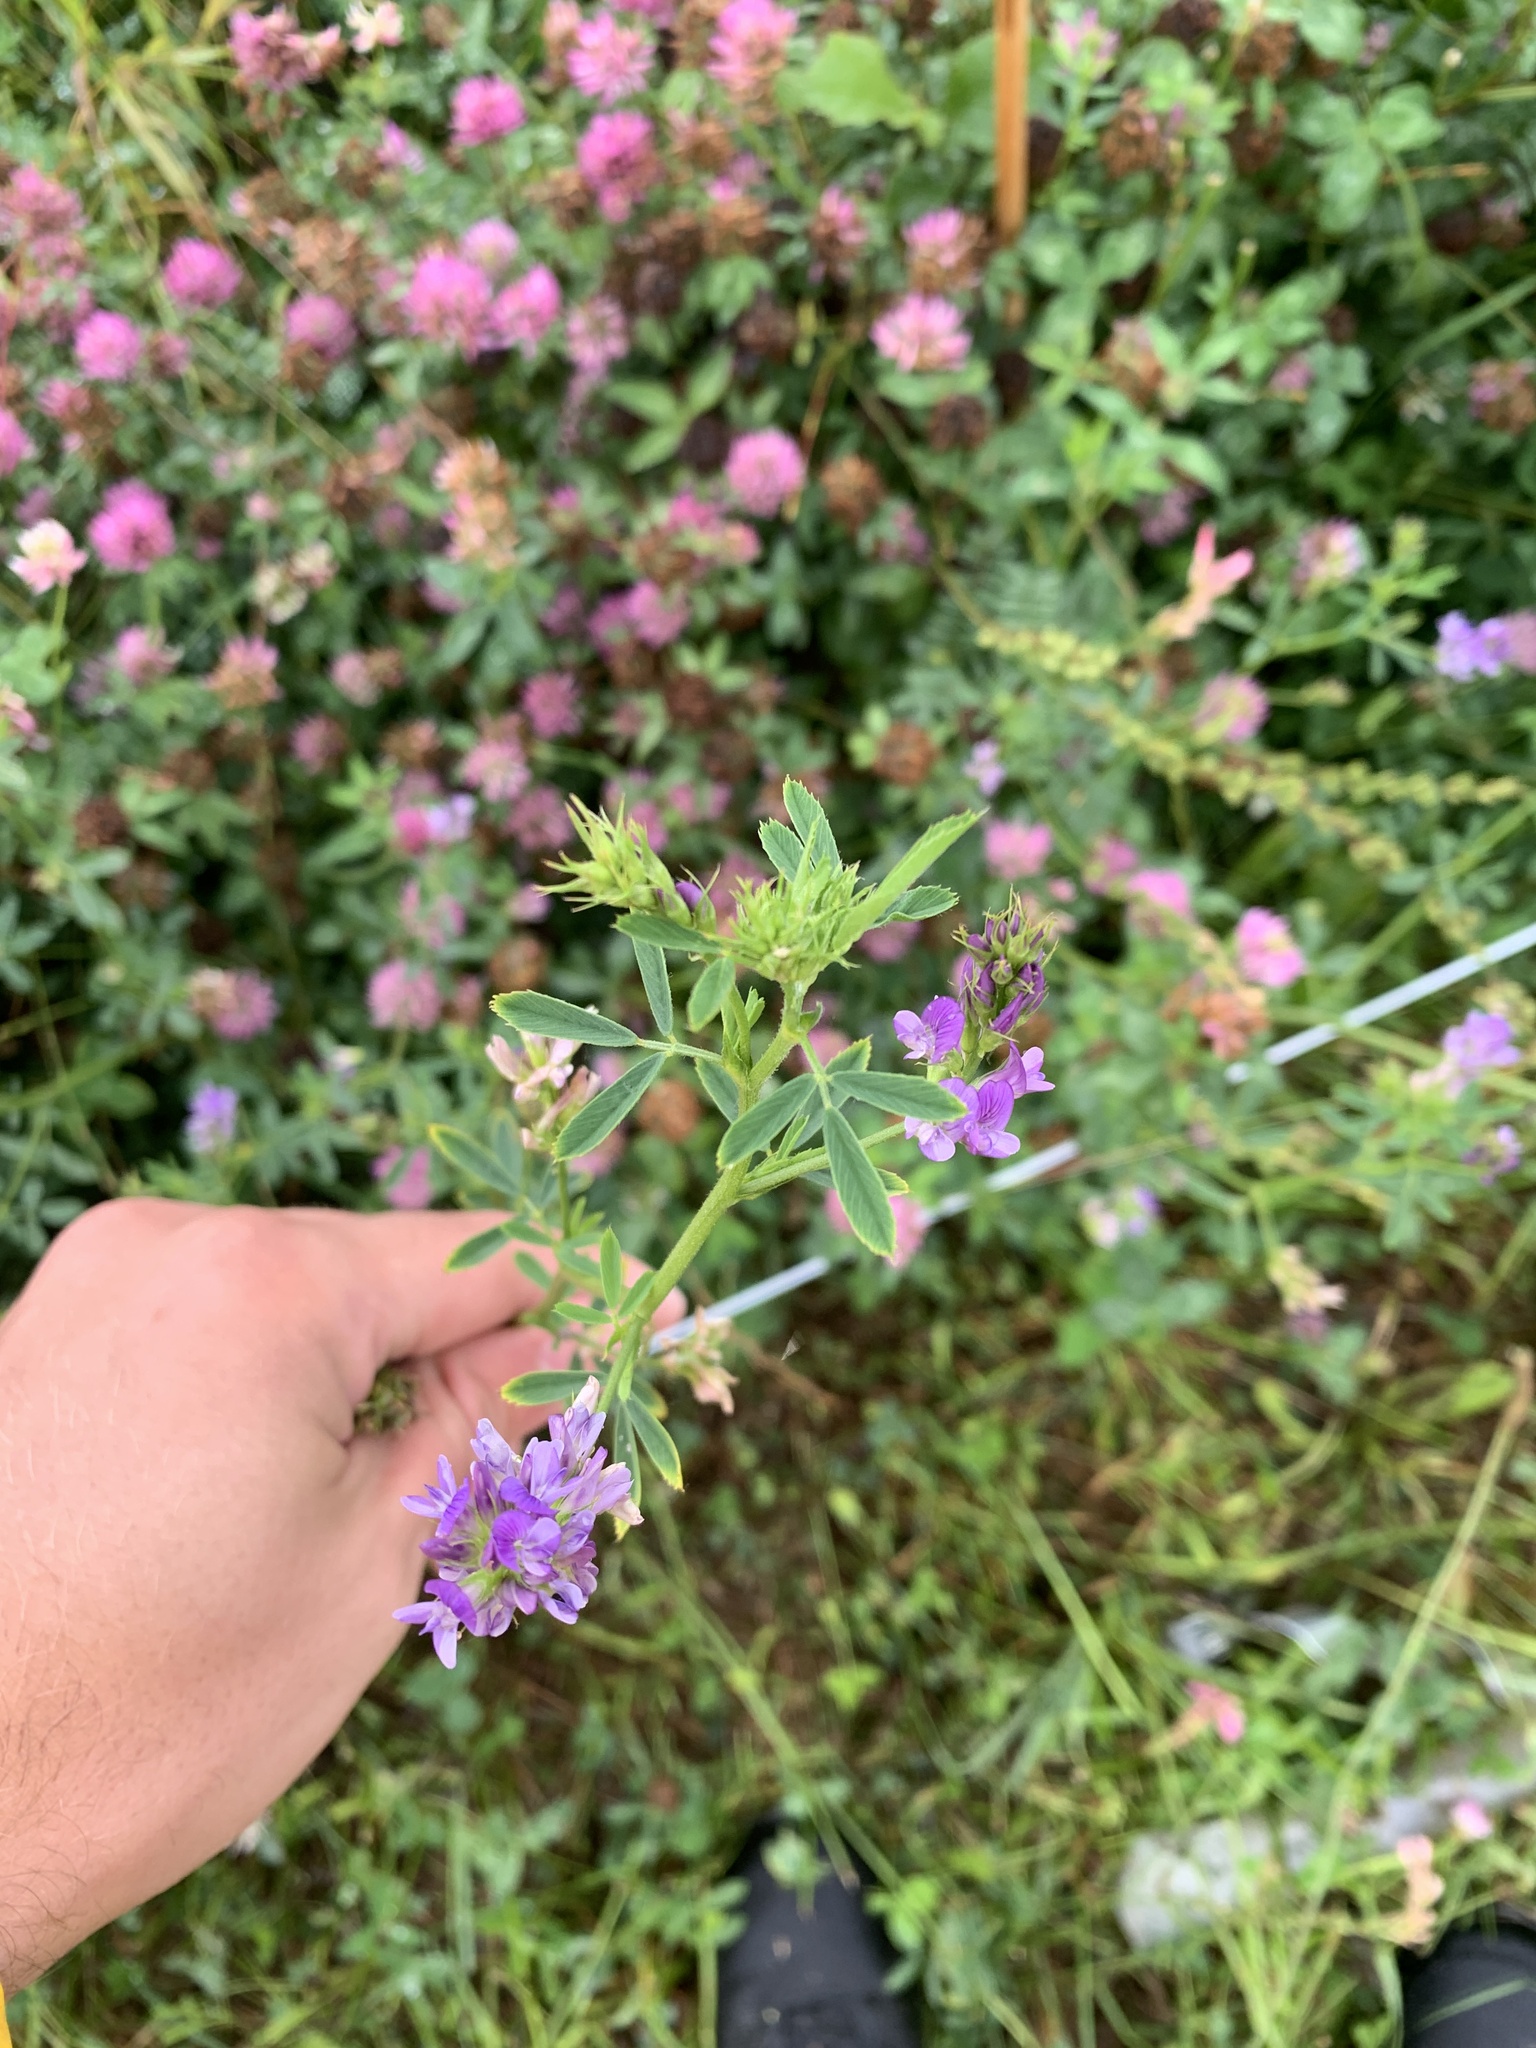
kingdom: Plantae
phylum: Tracheophyta
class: Magnoliopsida
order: Fabales
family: Fabaceae
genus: Medicago
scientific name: Medicago sativa
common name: Alfalfa
